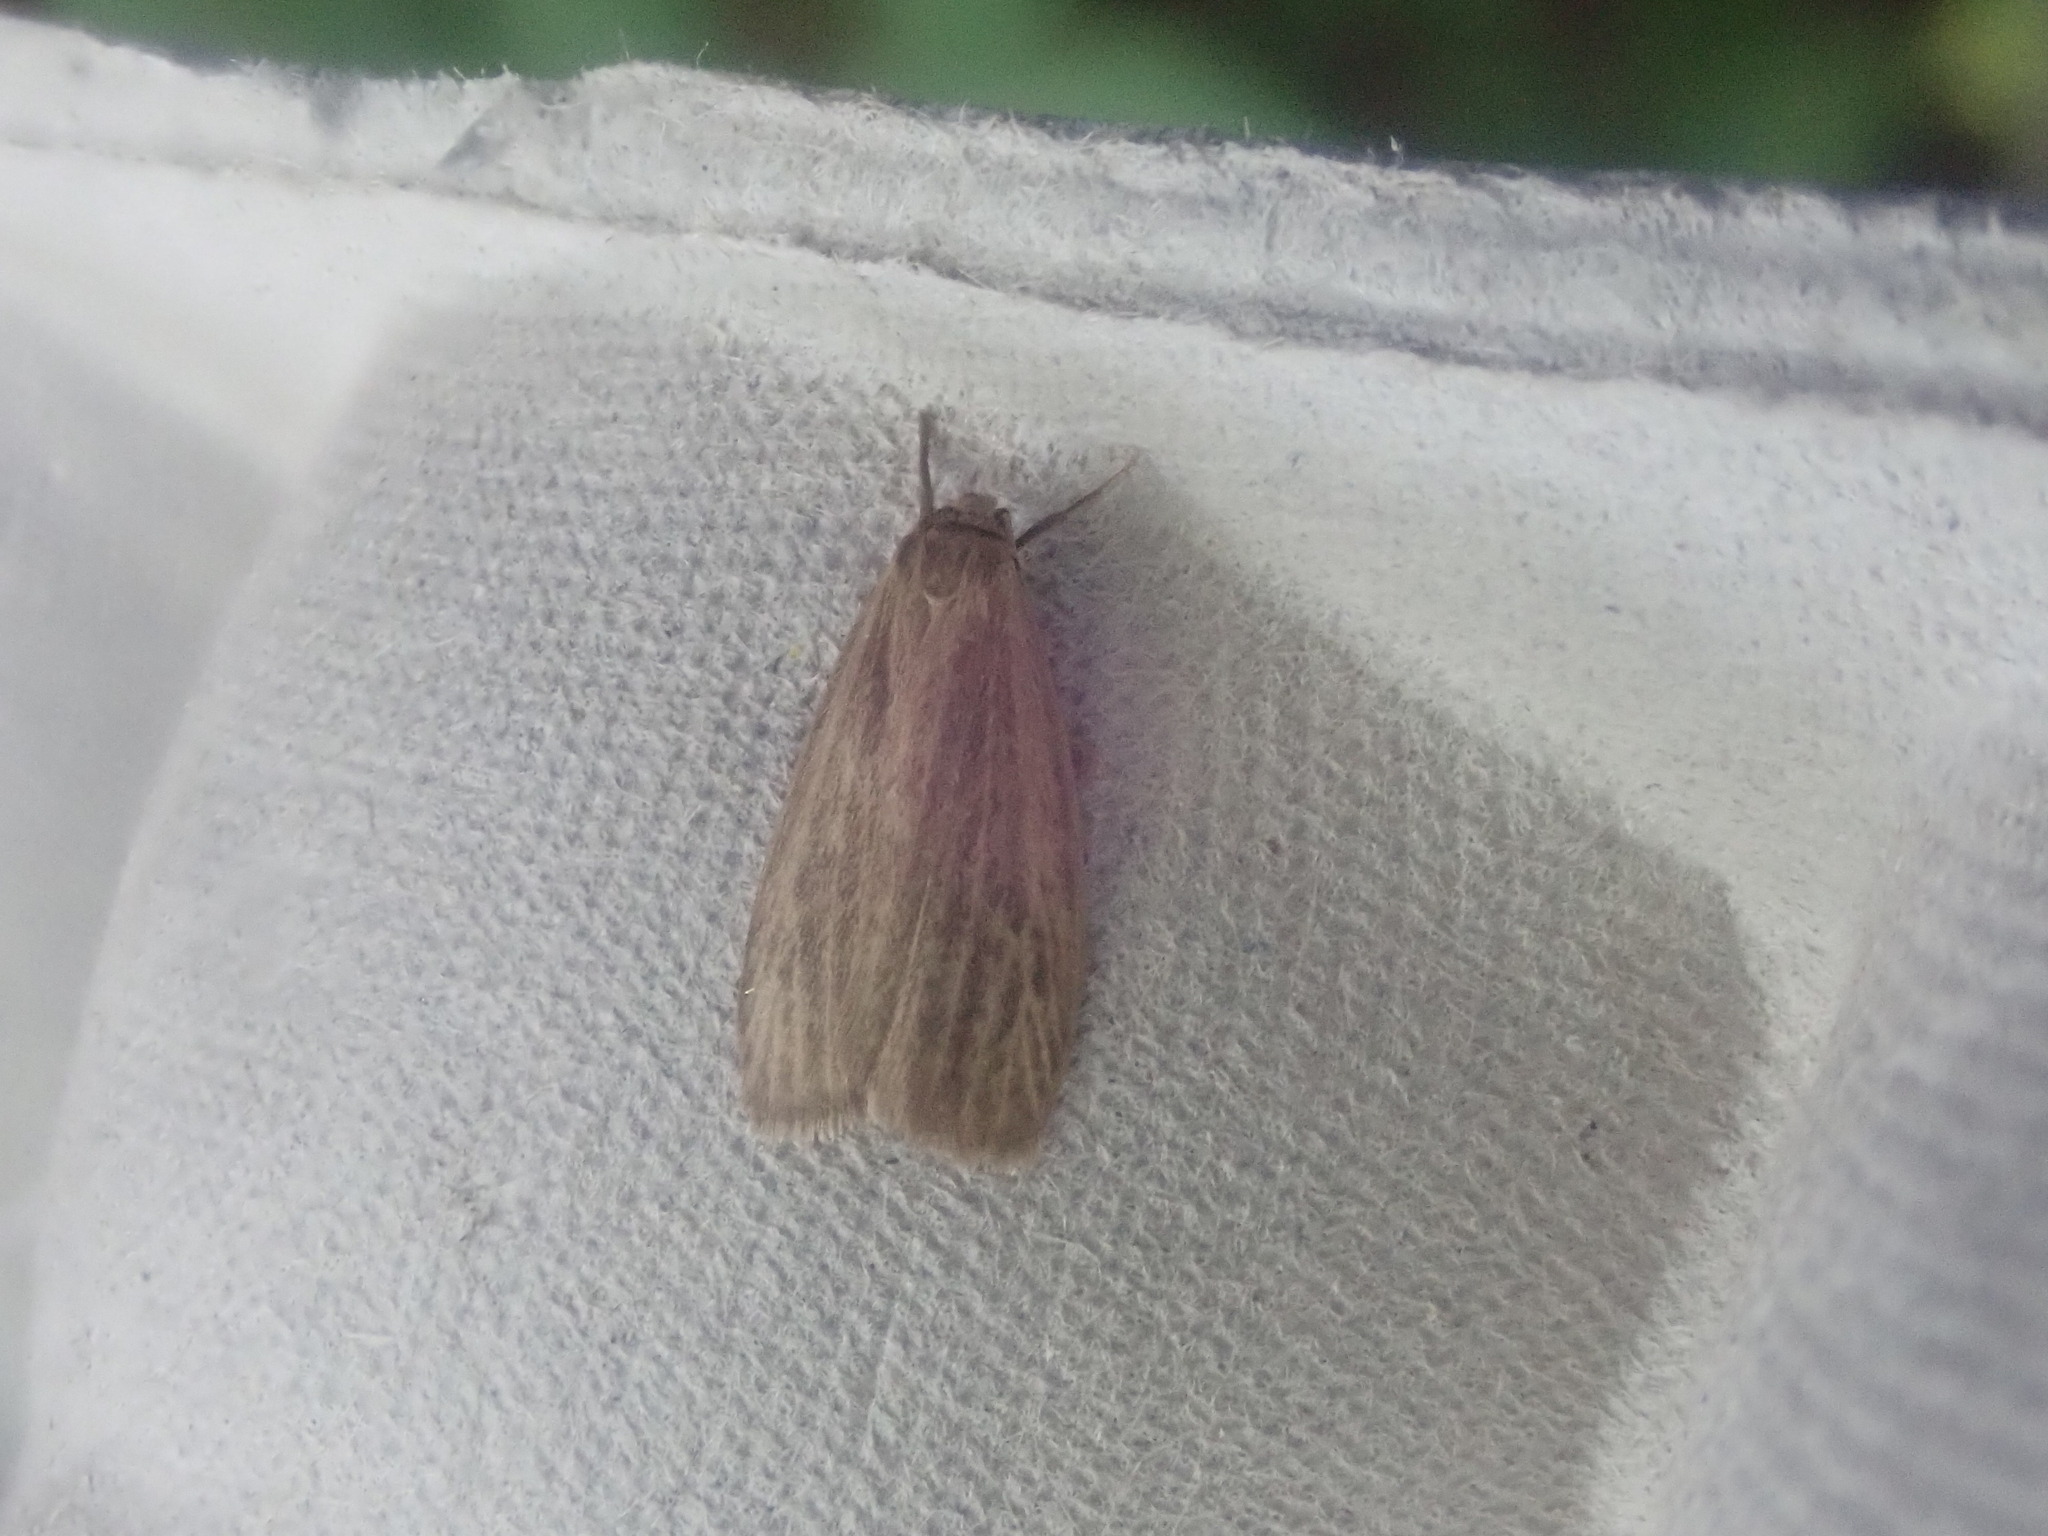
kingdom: Animalia
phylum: Arthropoda
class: Insecta
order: Lepidoptera
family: Erebidae
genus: Crambidia
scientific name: Crambidia pallida
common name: Pale lichen moth
